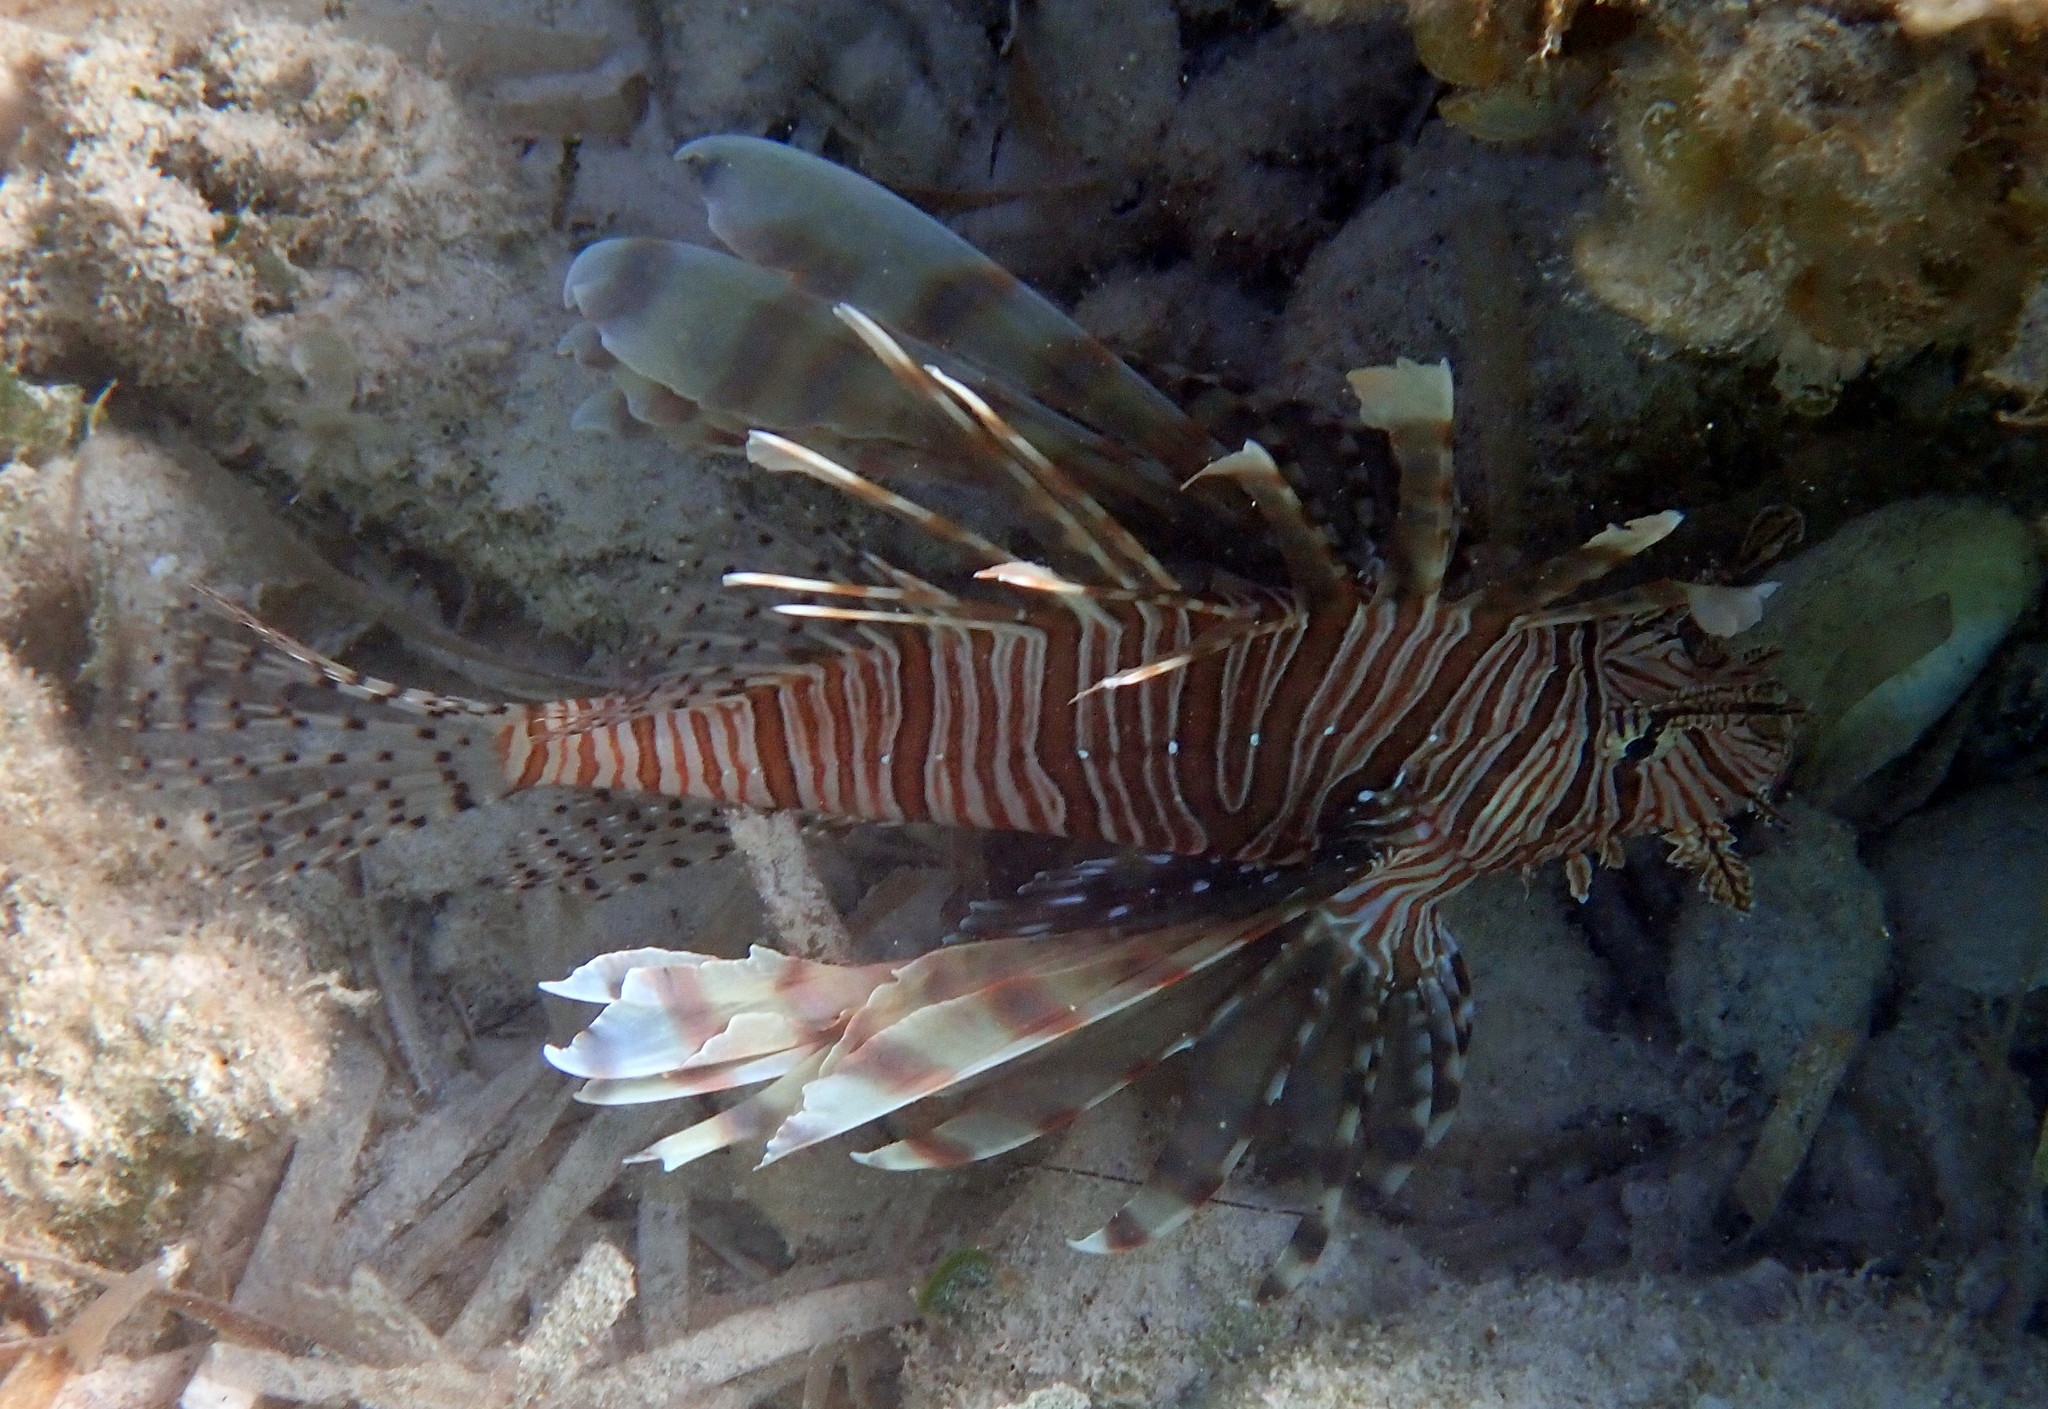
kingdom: Animalia
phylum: Chordata
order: Scorpaeniformes
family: Scorpaenidae
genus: Pterois
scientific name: Pterois volitans
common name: Lionfish
